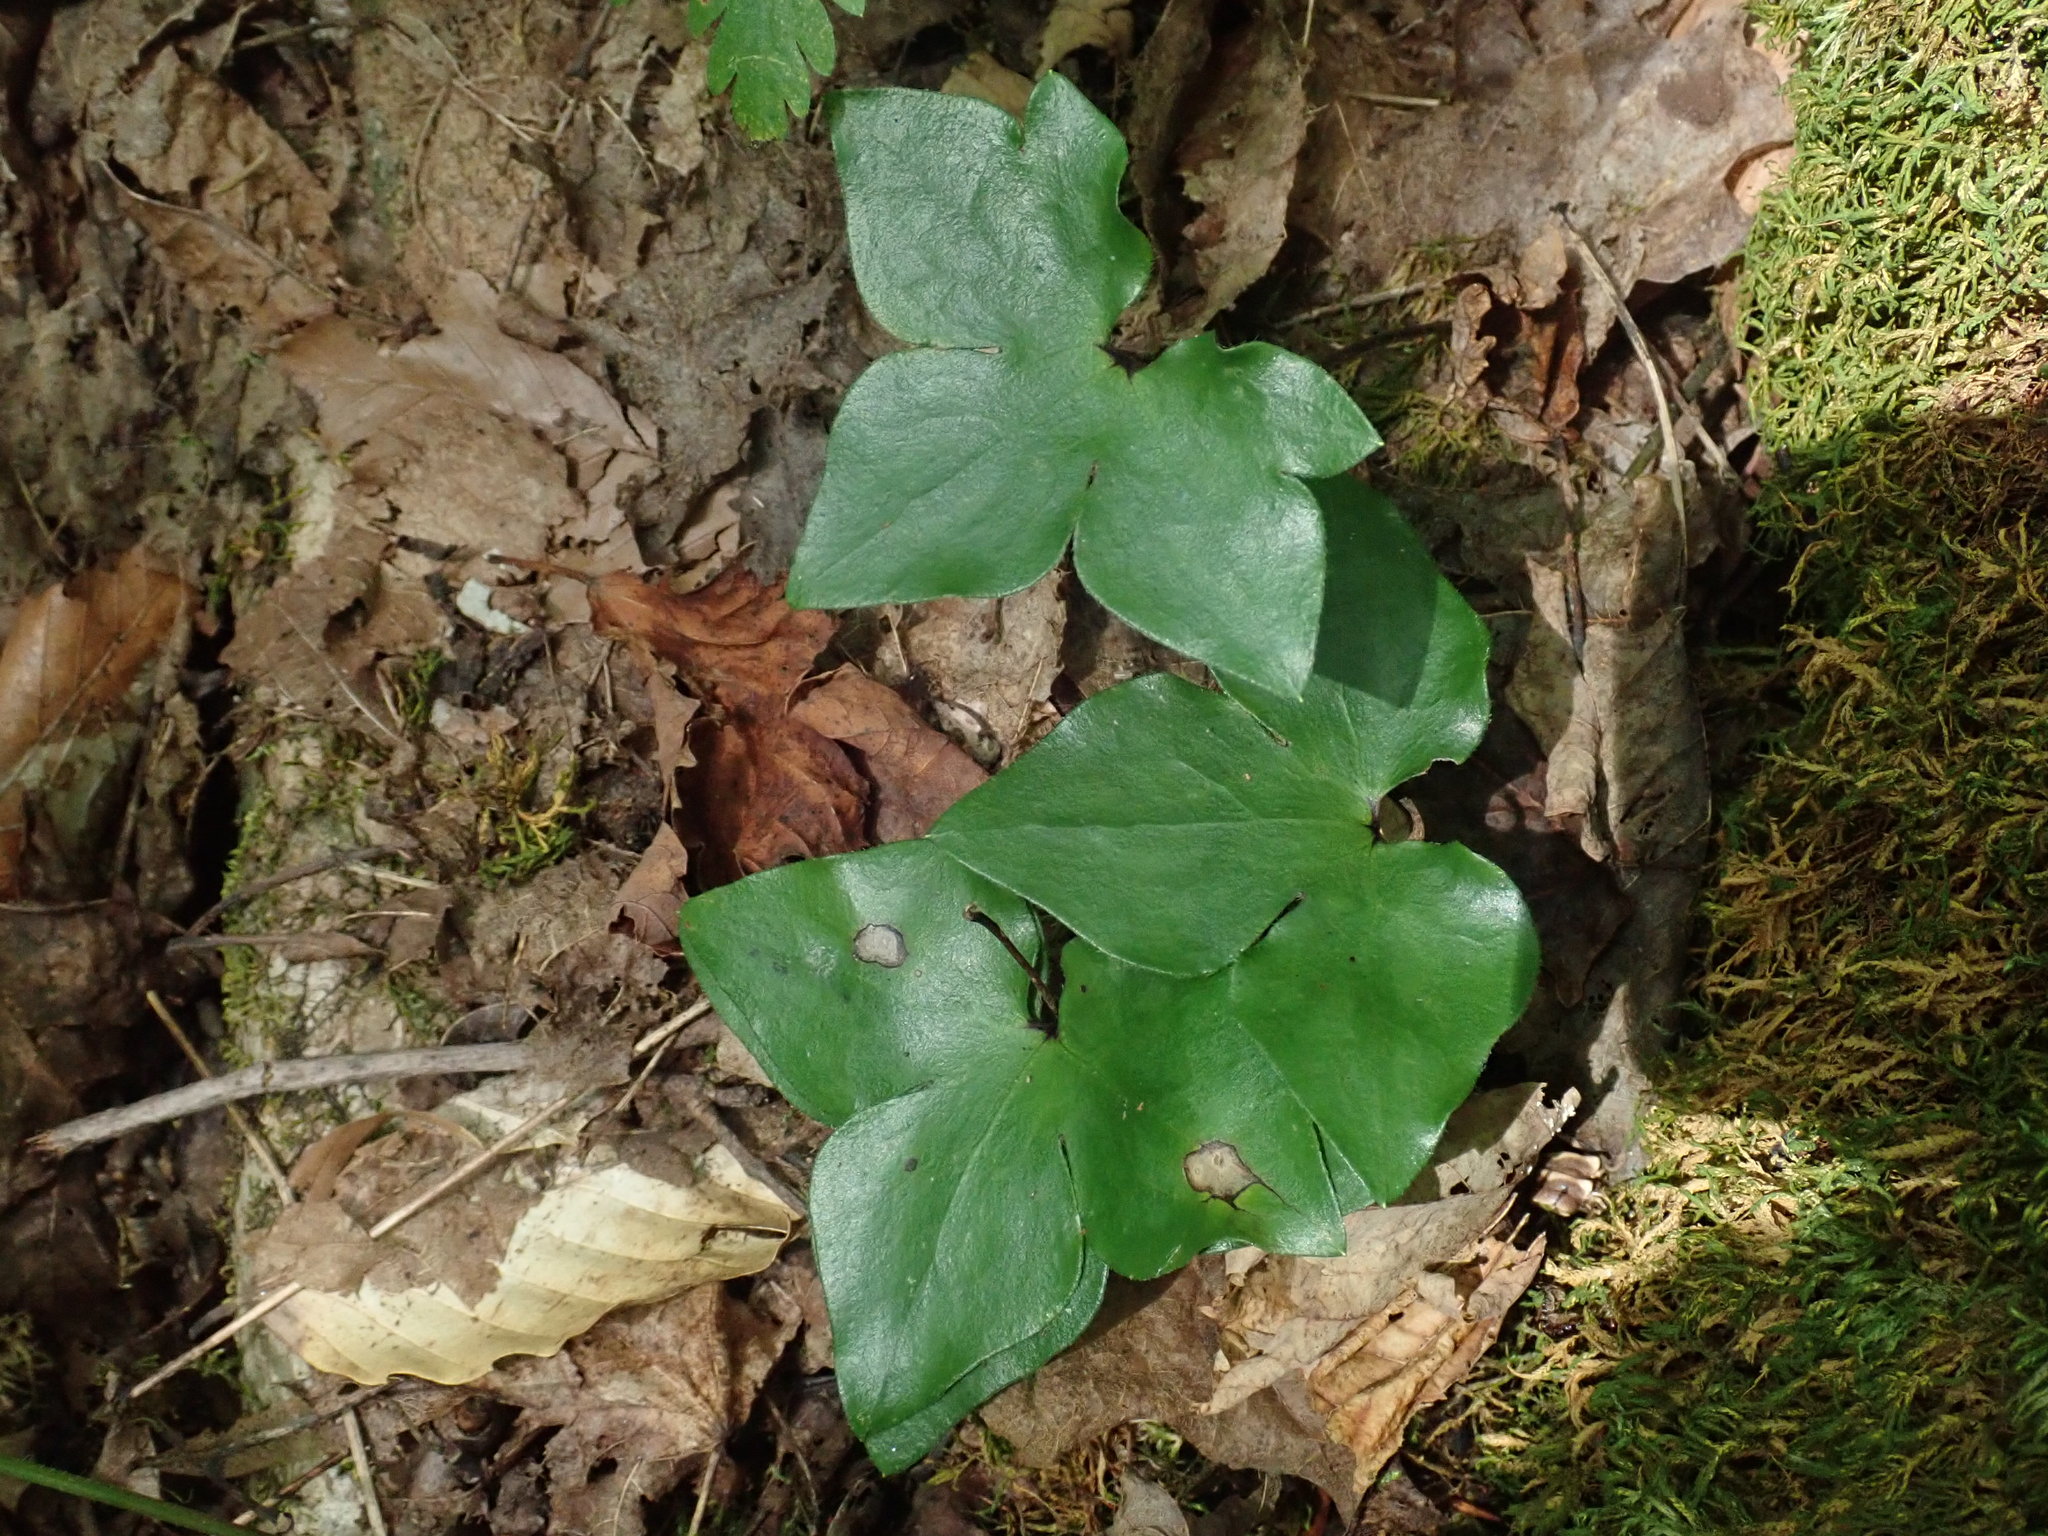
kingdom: Plantae
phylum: Tracheophyta
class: Magnoliopsida
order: Ranunculales
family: Ranunculaceae
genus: Hepatica
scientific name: Hepatica acutiloba
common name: Sharp-lobed hepatica
